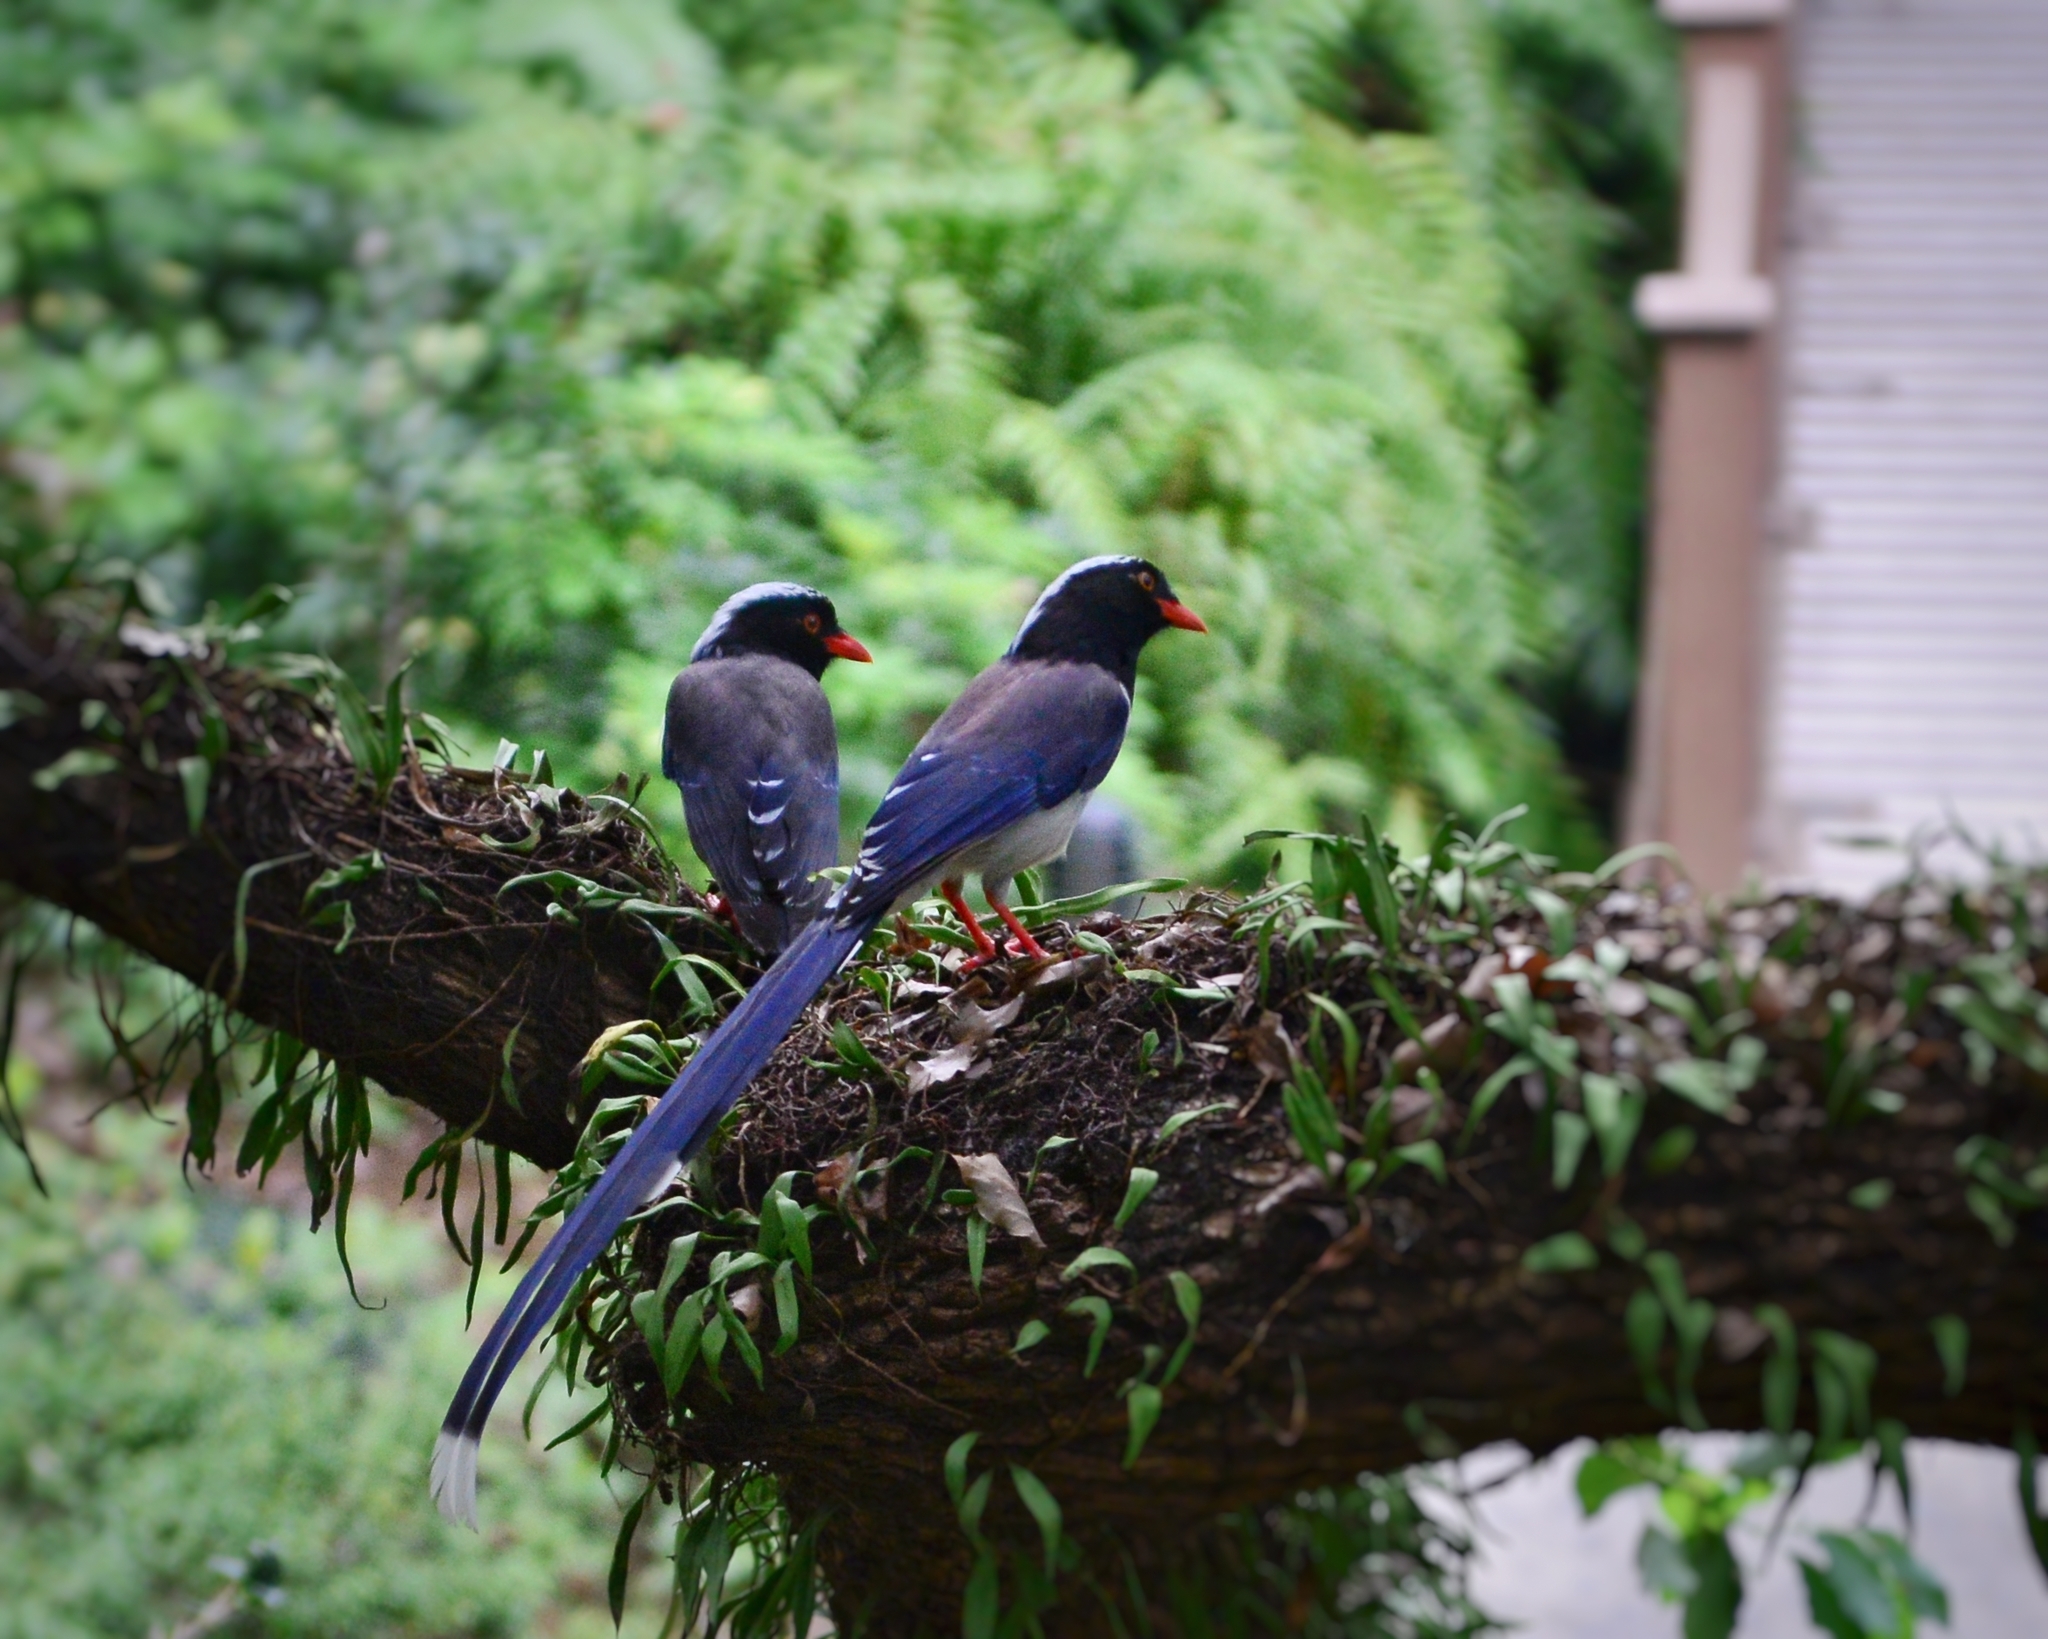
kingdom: Animalia
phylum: Chordata
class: Aves
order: Passeriformes
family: Corvidae
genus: Urocissa
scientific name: Urocissa erythroryncha
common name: Red-billed blue magpie
